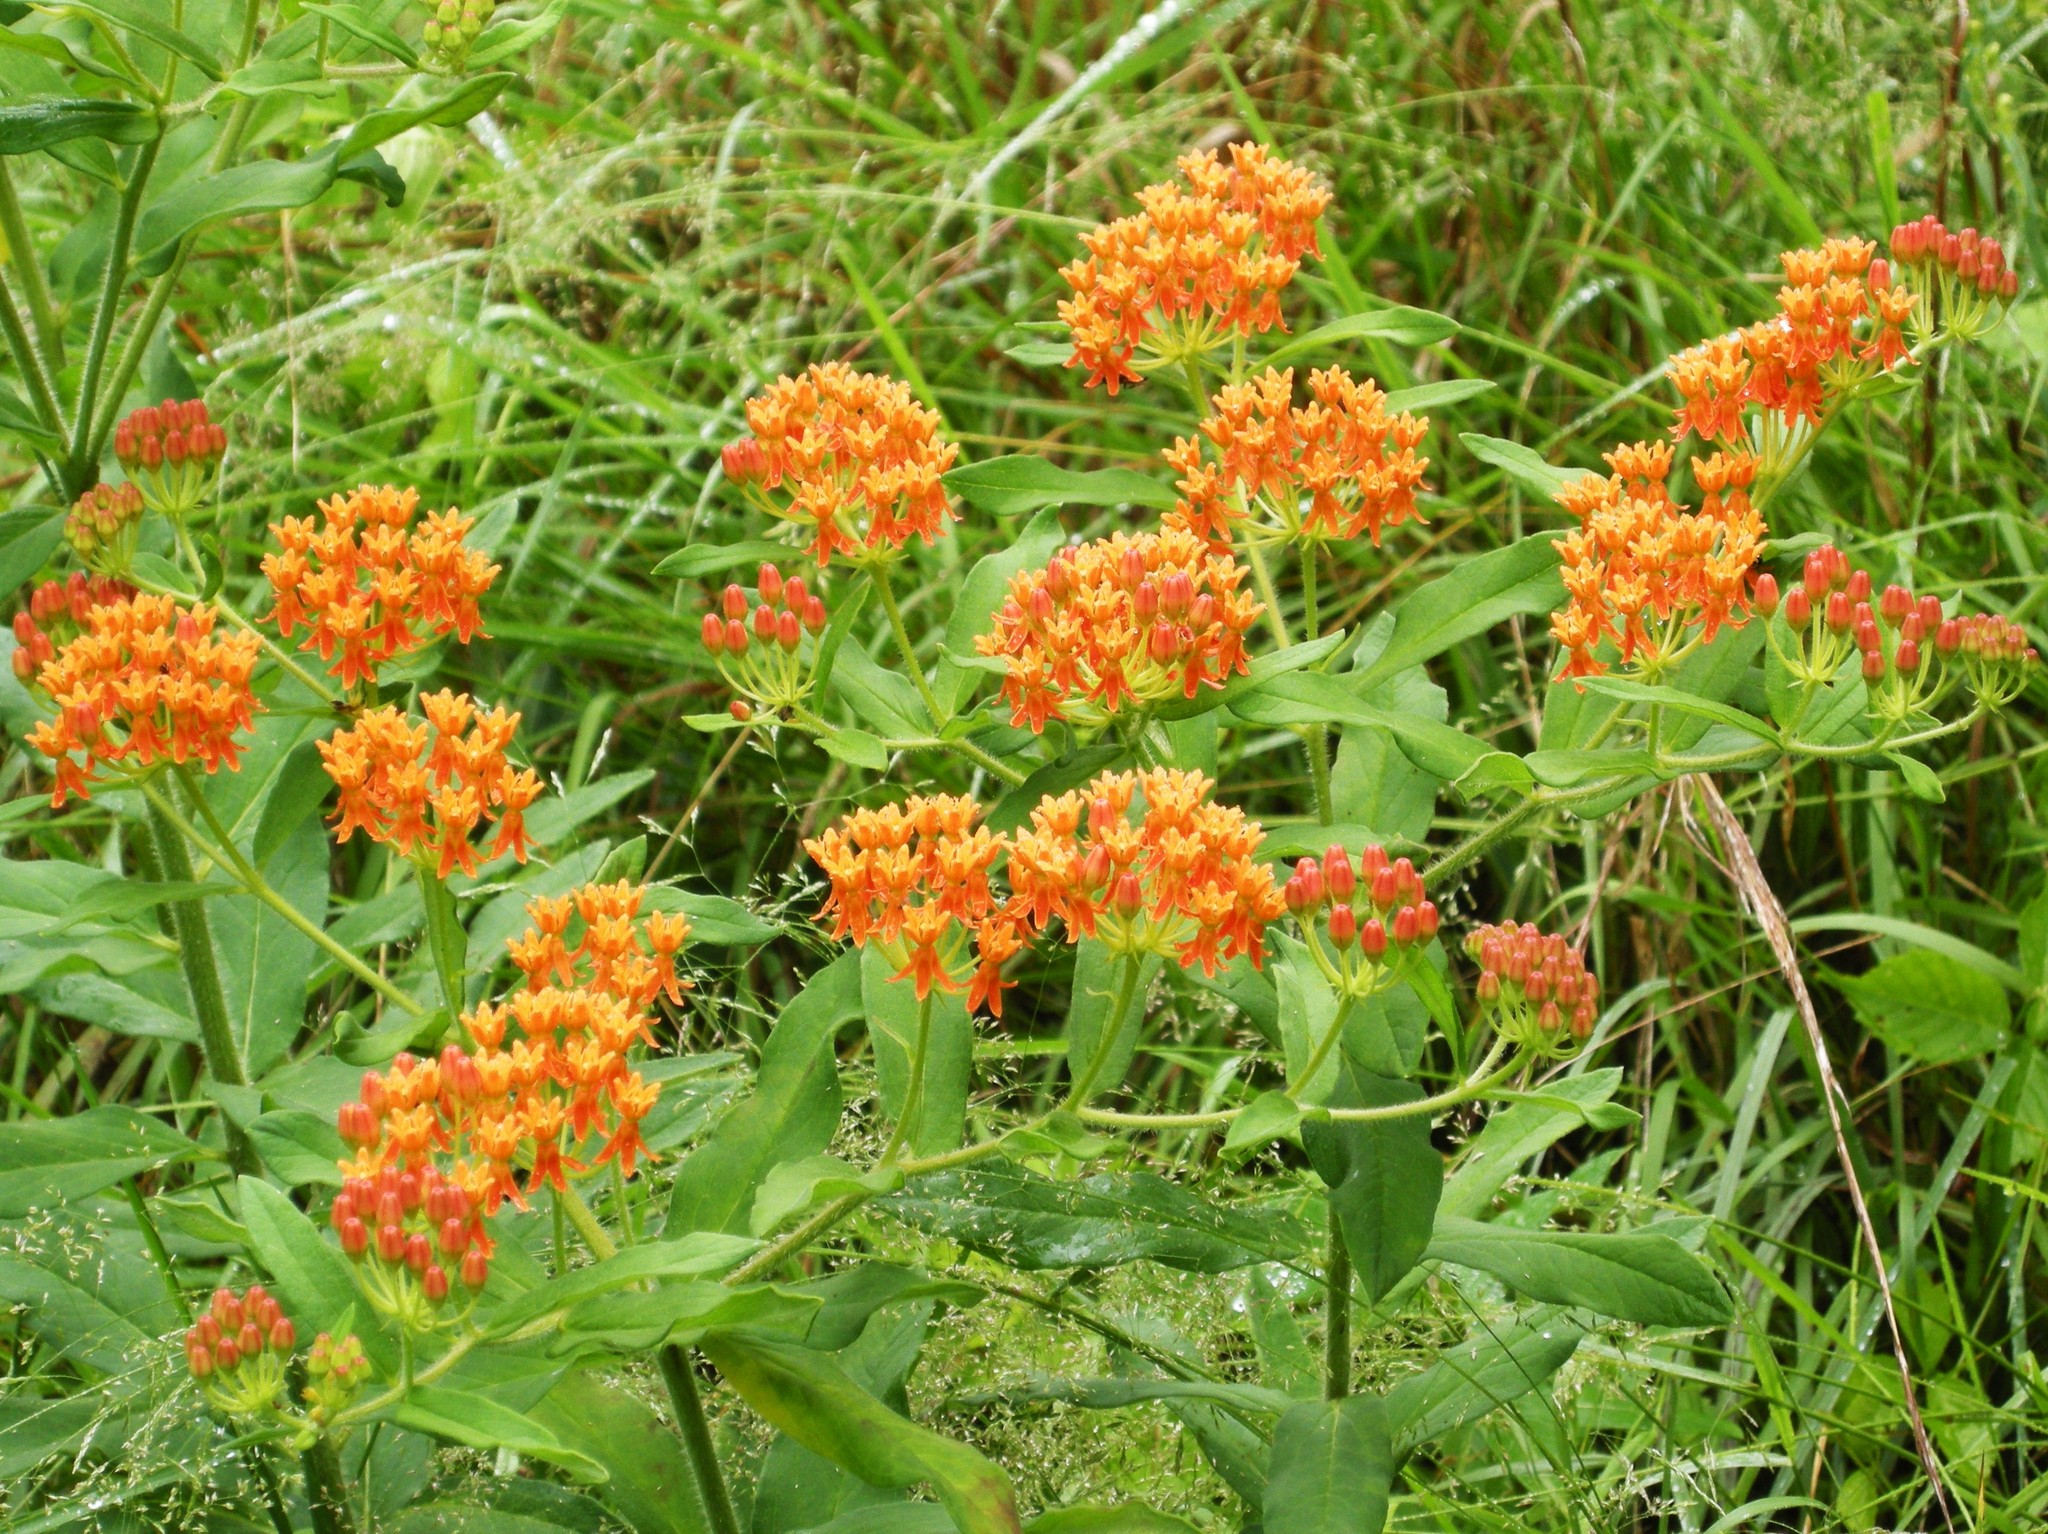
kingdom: Plantae
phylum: Tracheophyta
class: Magnoliopsida
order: Gentianales
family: Apocynaceae
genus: Asclepias
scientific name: Asclepias tuberosa
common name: Butterfly milkweed
